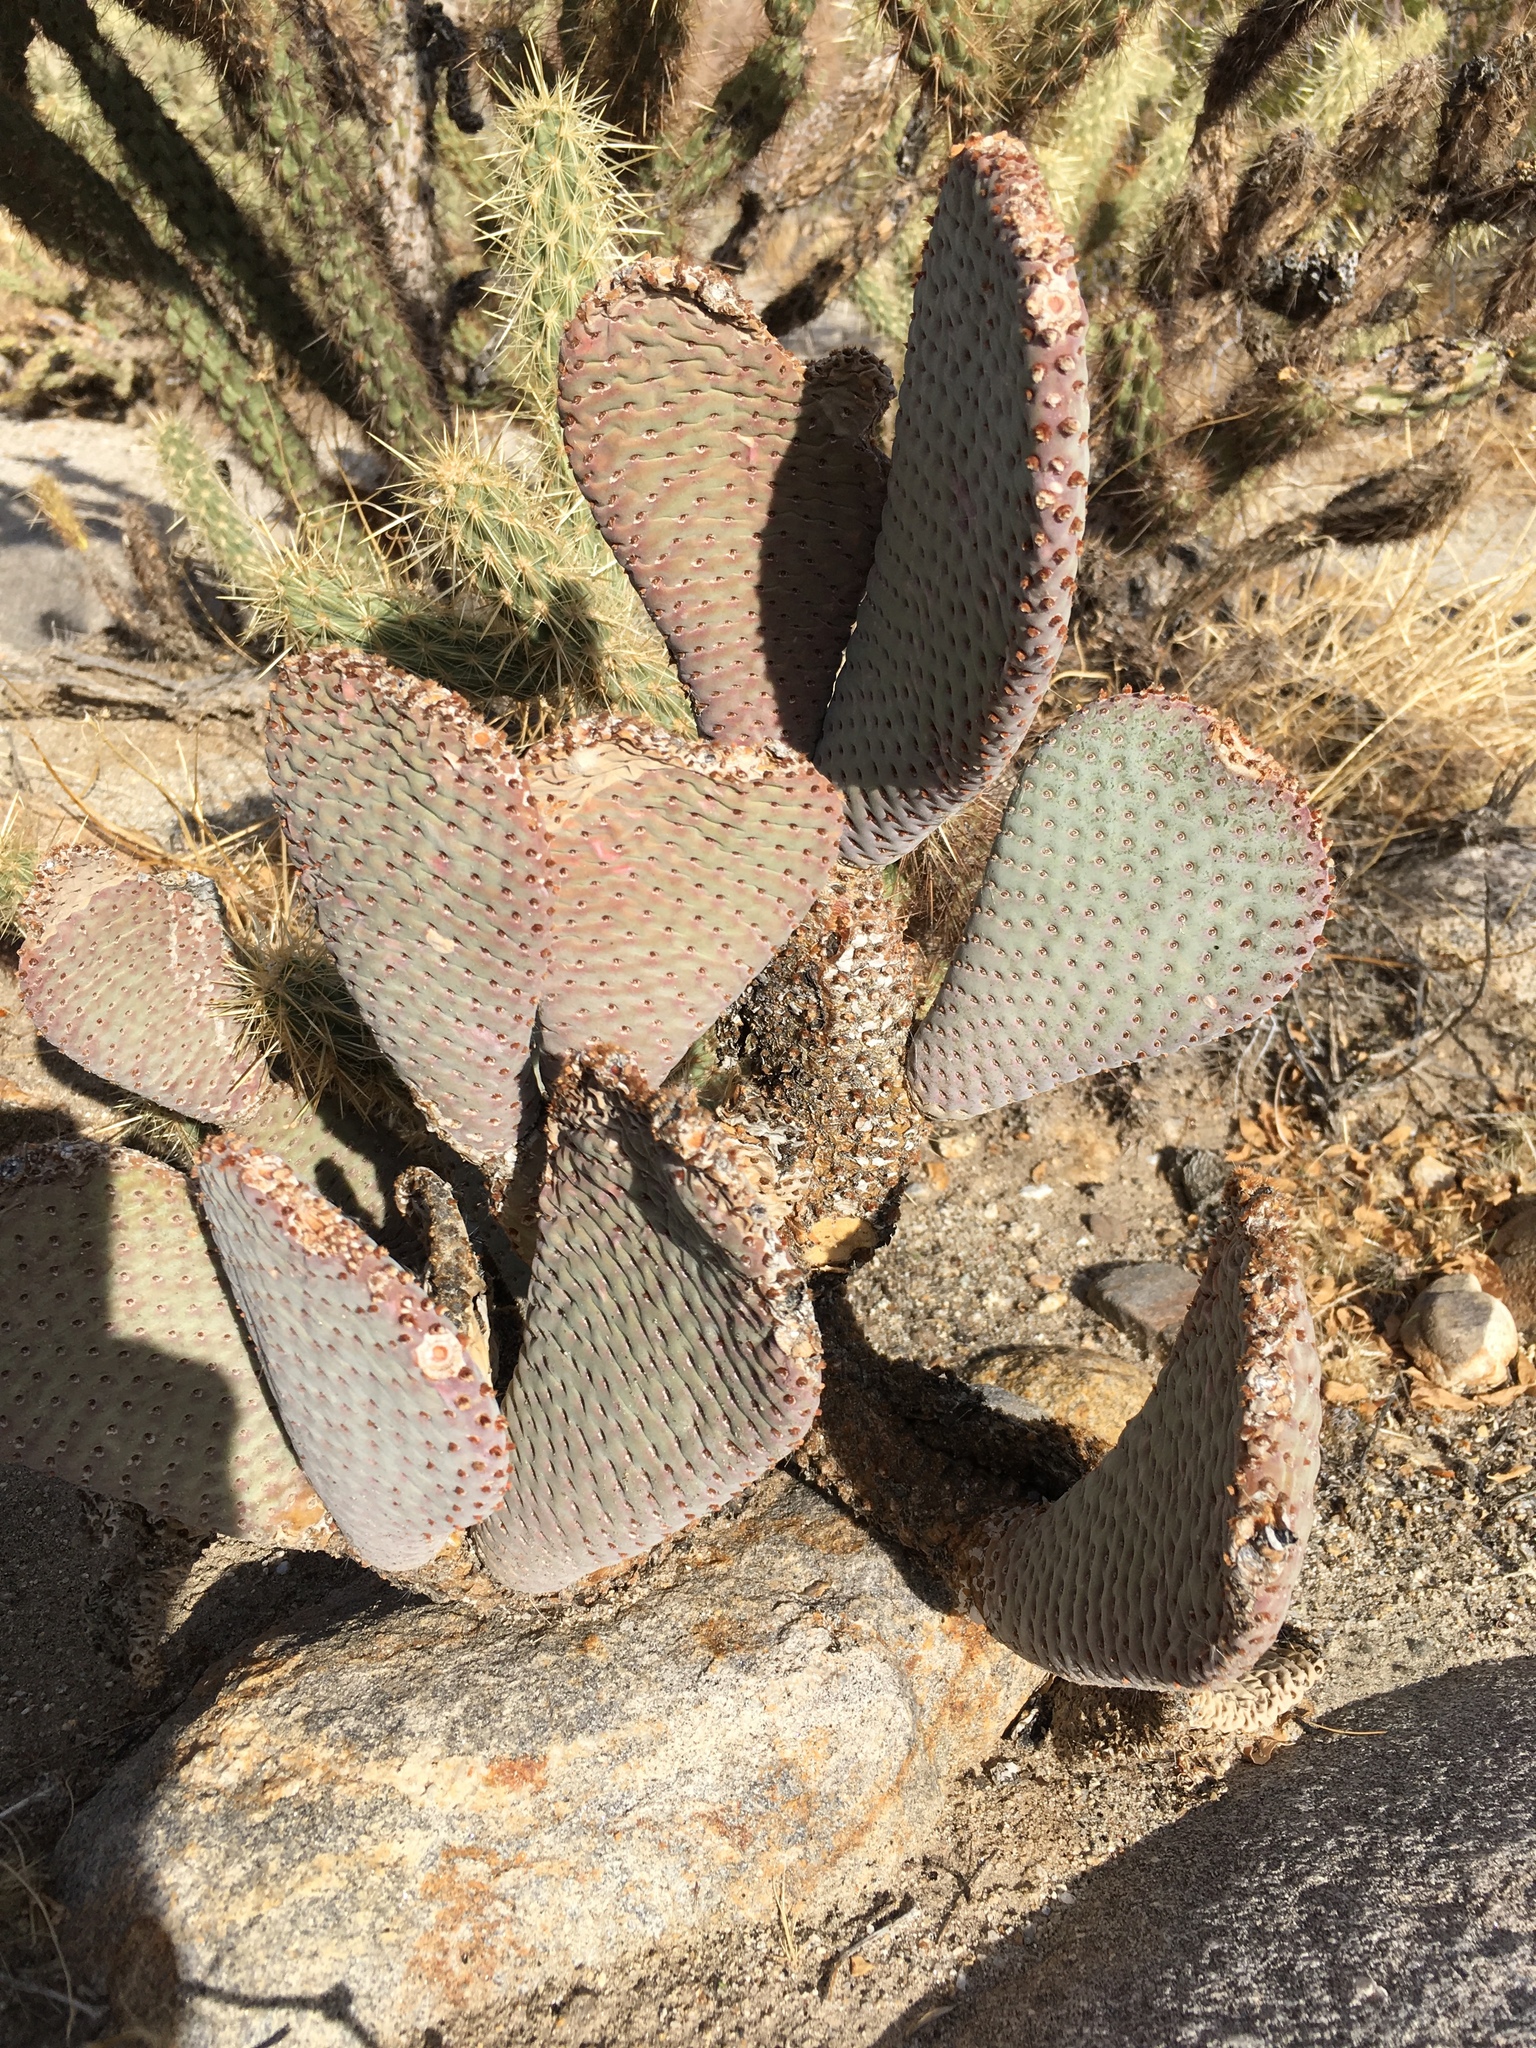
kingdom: Plantae
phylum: Tracheophyta
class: Magnoliopsida
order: Caryophyllales
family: Cactaceae
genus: Opuntia
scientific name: Opuntia basilaris
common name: Beavertail prickly-pear
